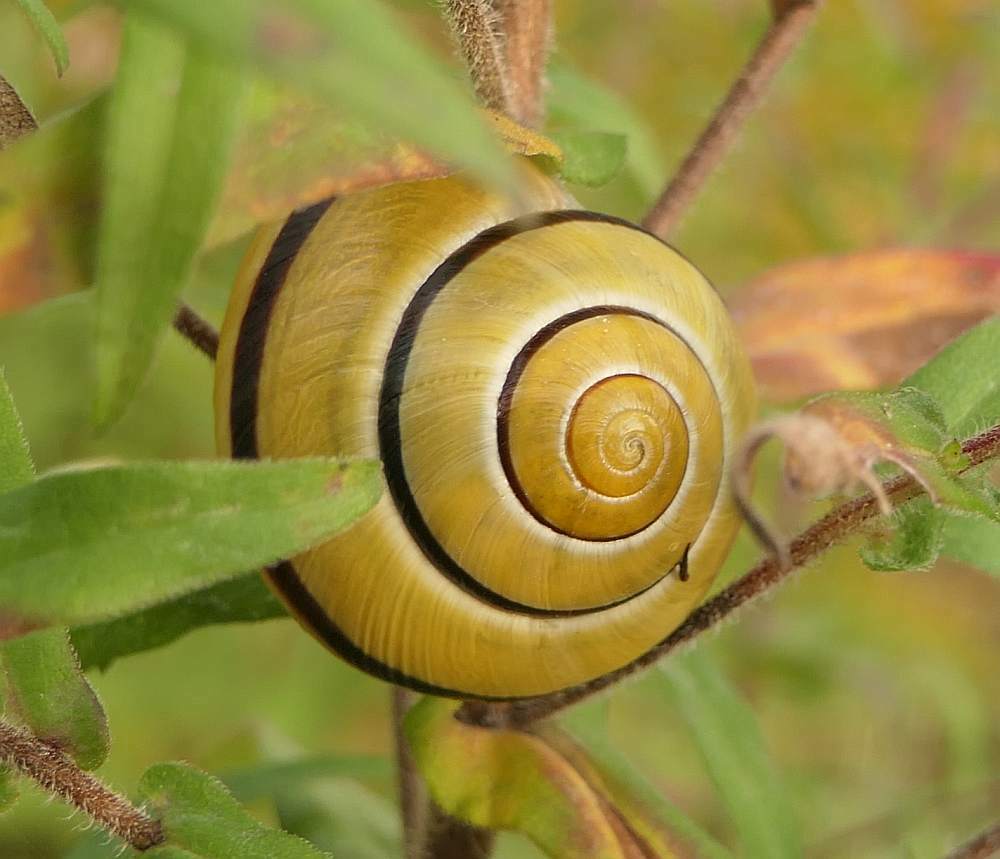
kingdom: Animalia
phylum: Mollusca
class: Gastropoda
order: Stylommatophora
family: Helicidae
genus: Cepaea
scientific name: Cepaea nemoralis
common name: Grovesnail
